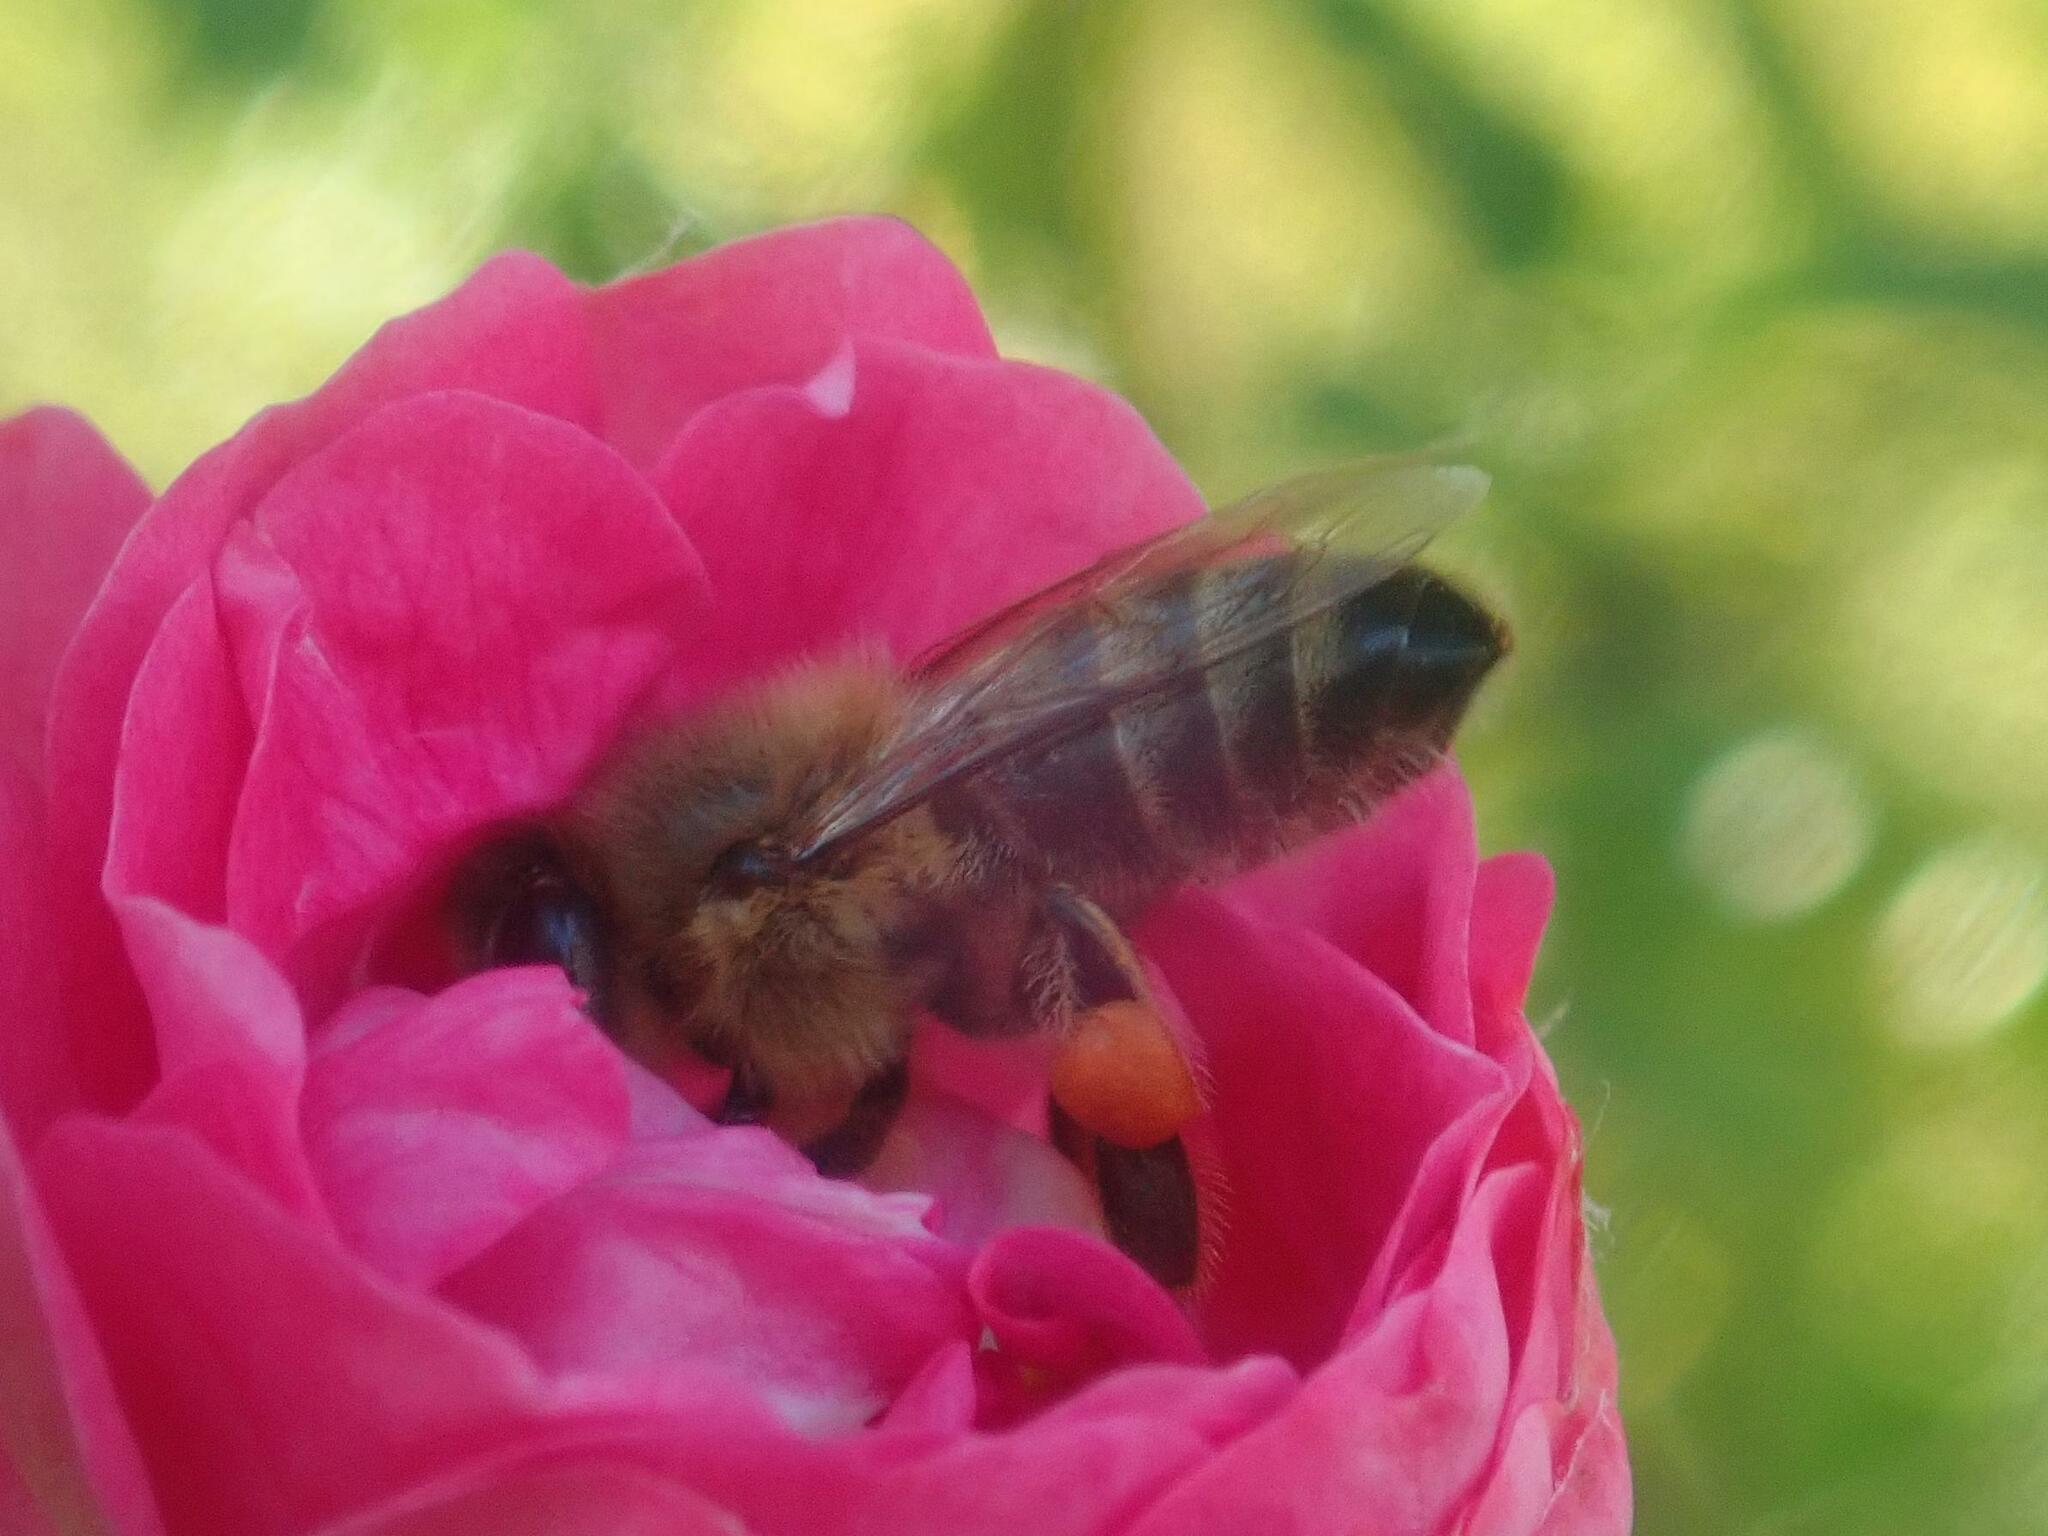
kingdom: Animalia
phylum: Arthropoda
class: Insecta
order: Hymenoptera
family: Apidae
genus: Apis
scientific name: Apis mellifera
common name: Honey bee
